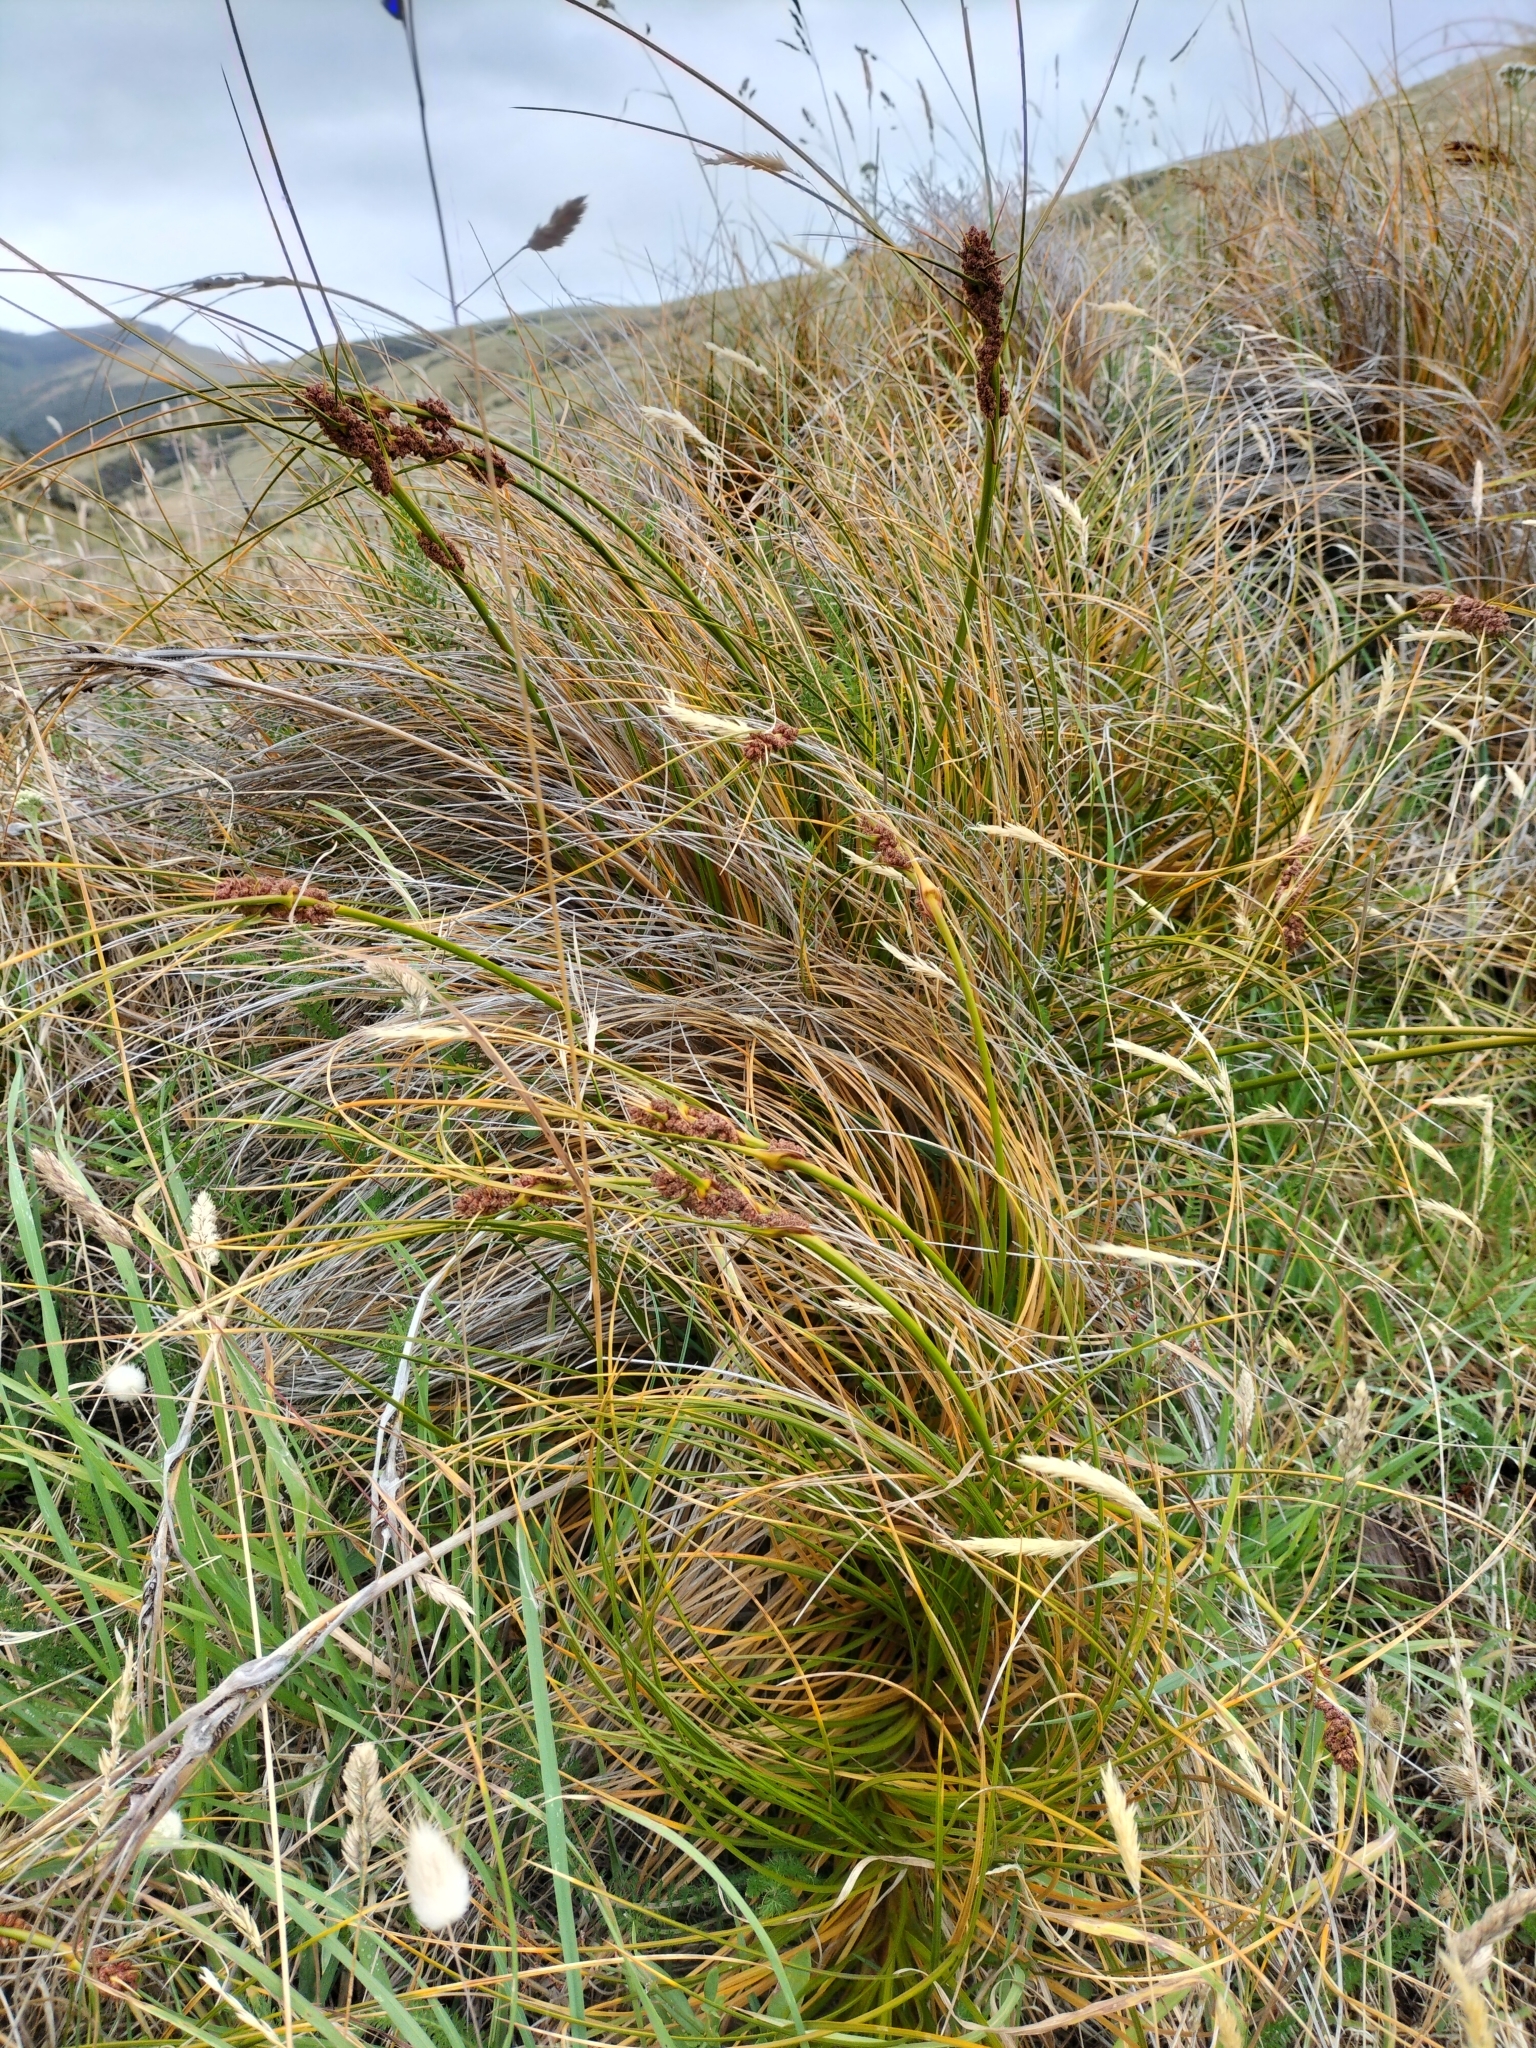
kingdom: Plantae
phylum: Tracheophyta
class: Liliopsida
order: Poales
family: Cyperaceae
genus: Ficinia
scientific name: Ficinia spiralis
